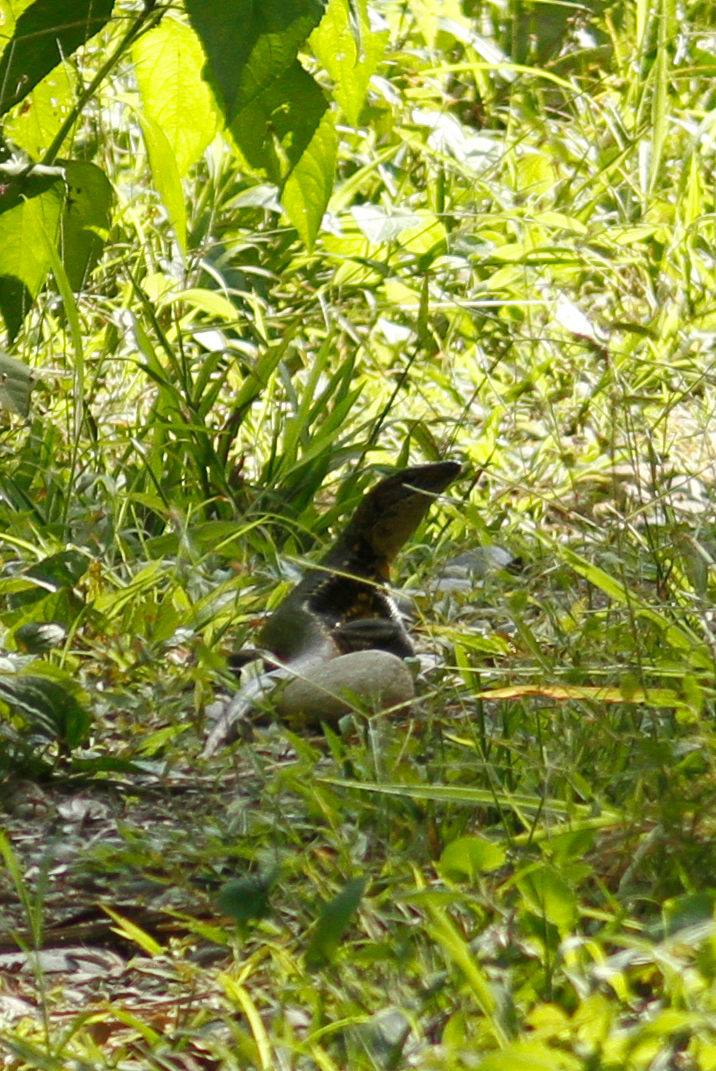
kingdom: Animalia
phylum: Chordata
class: Squamata
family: Teiidae
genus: Ameiva
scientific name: Ameiva ameiva
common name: Giant ameiva
